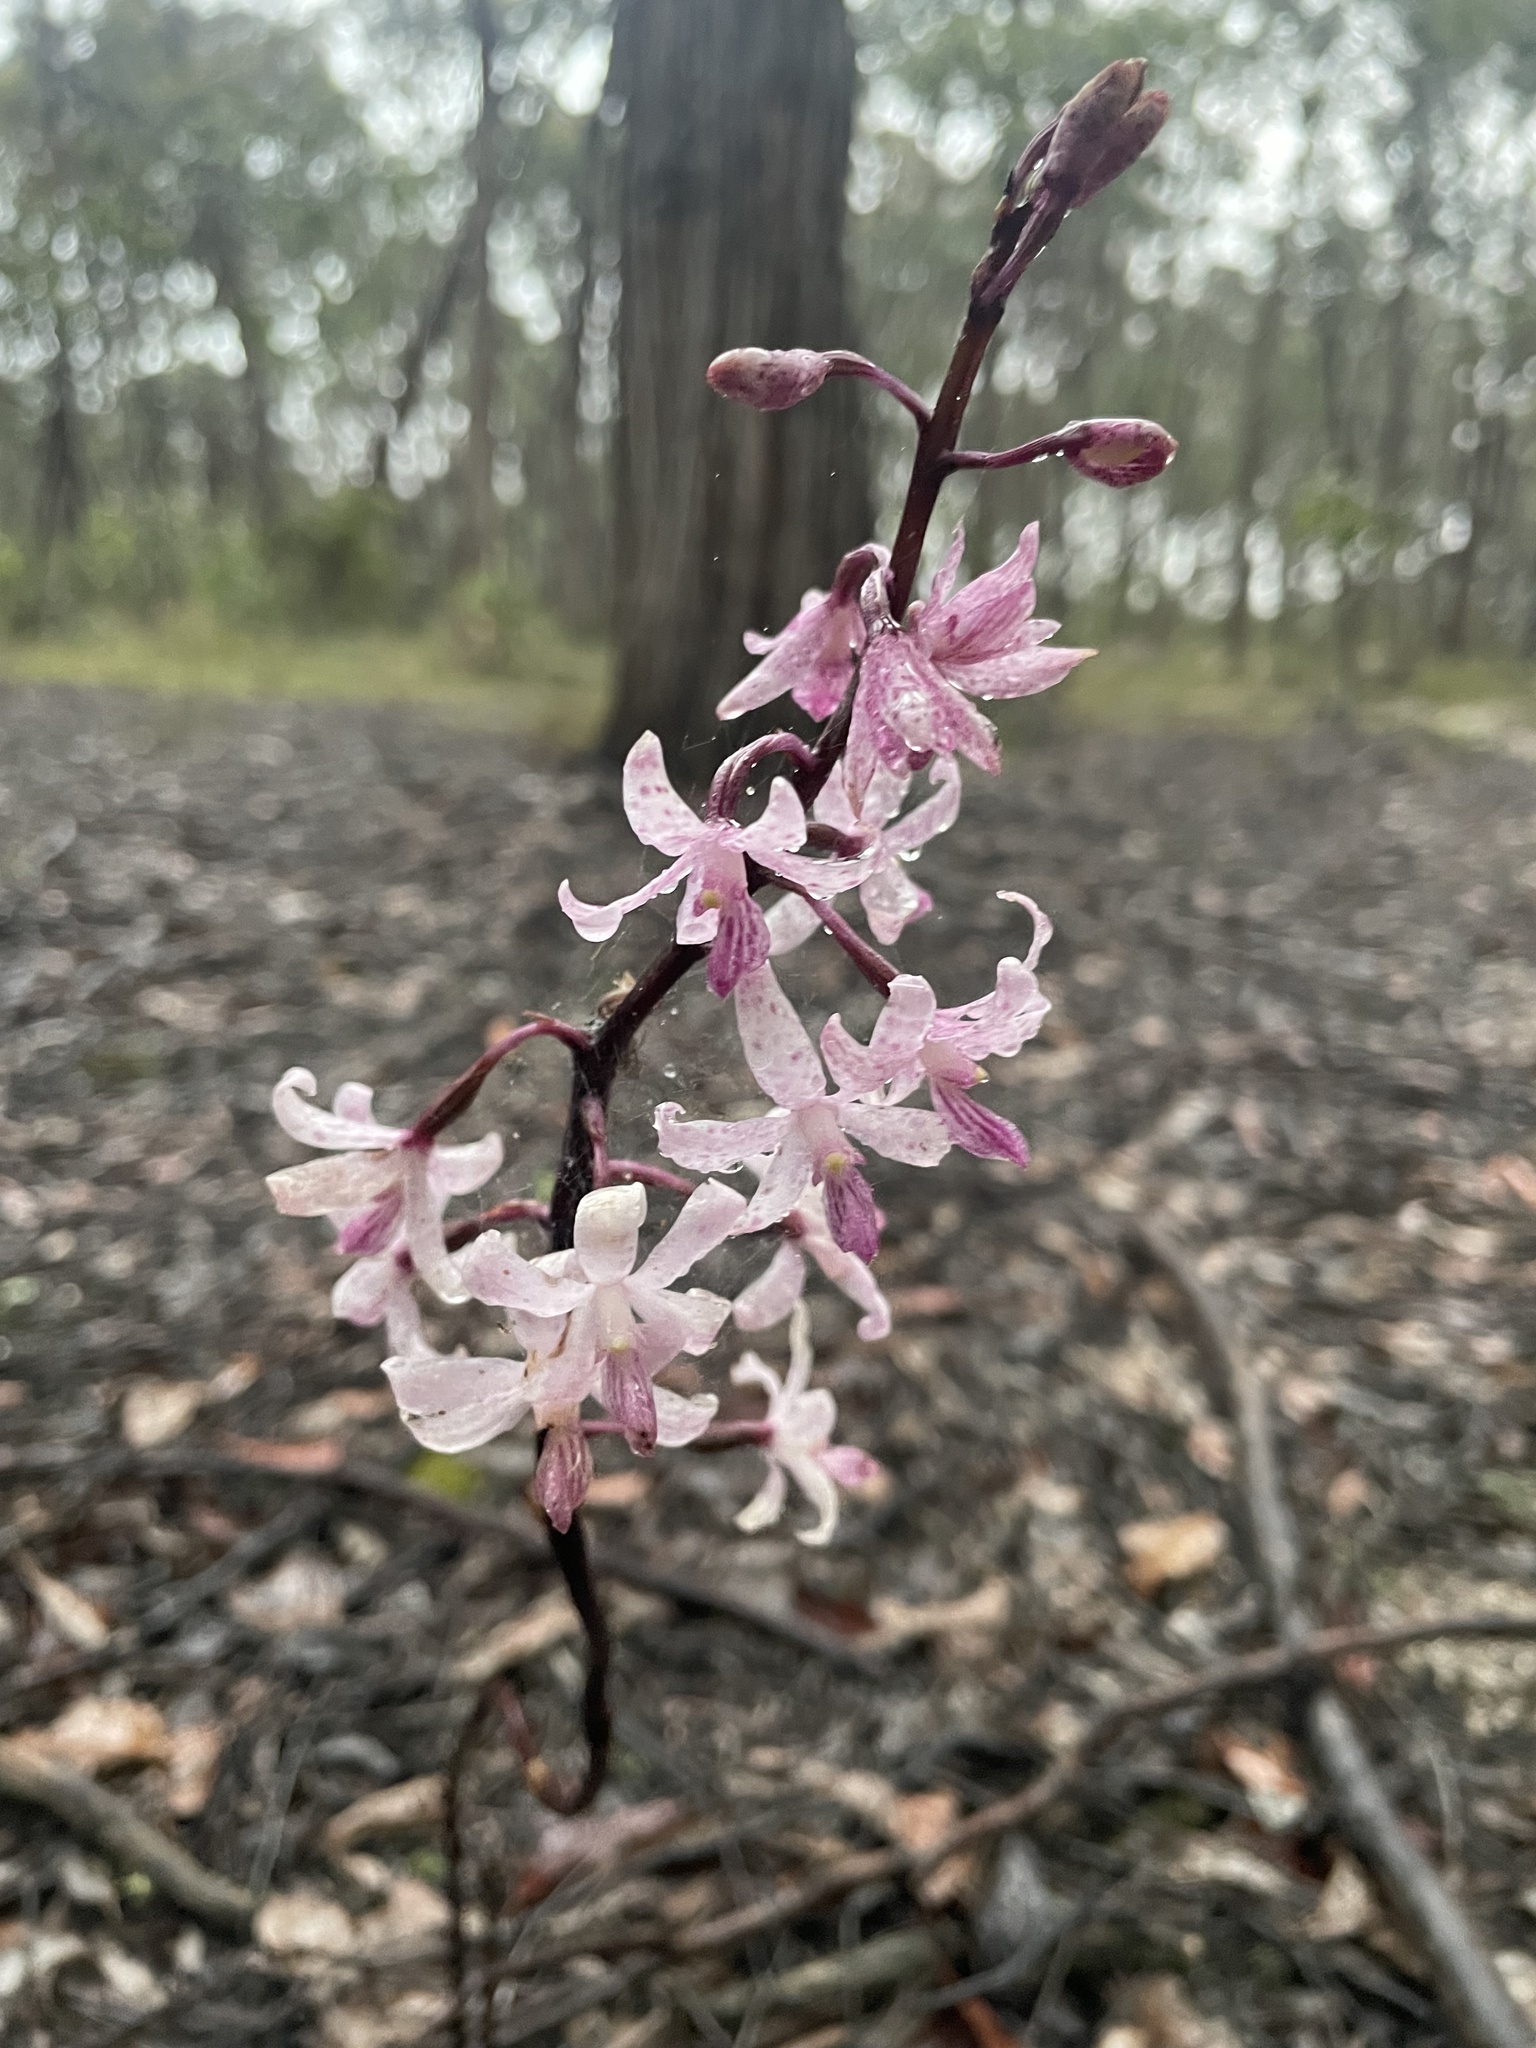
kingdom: Plantae
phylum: Tracheophyta
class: Liliopsida
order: Asparagales
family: Orchidaceae
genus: Dipodium
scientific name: Dipodium roseum
